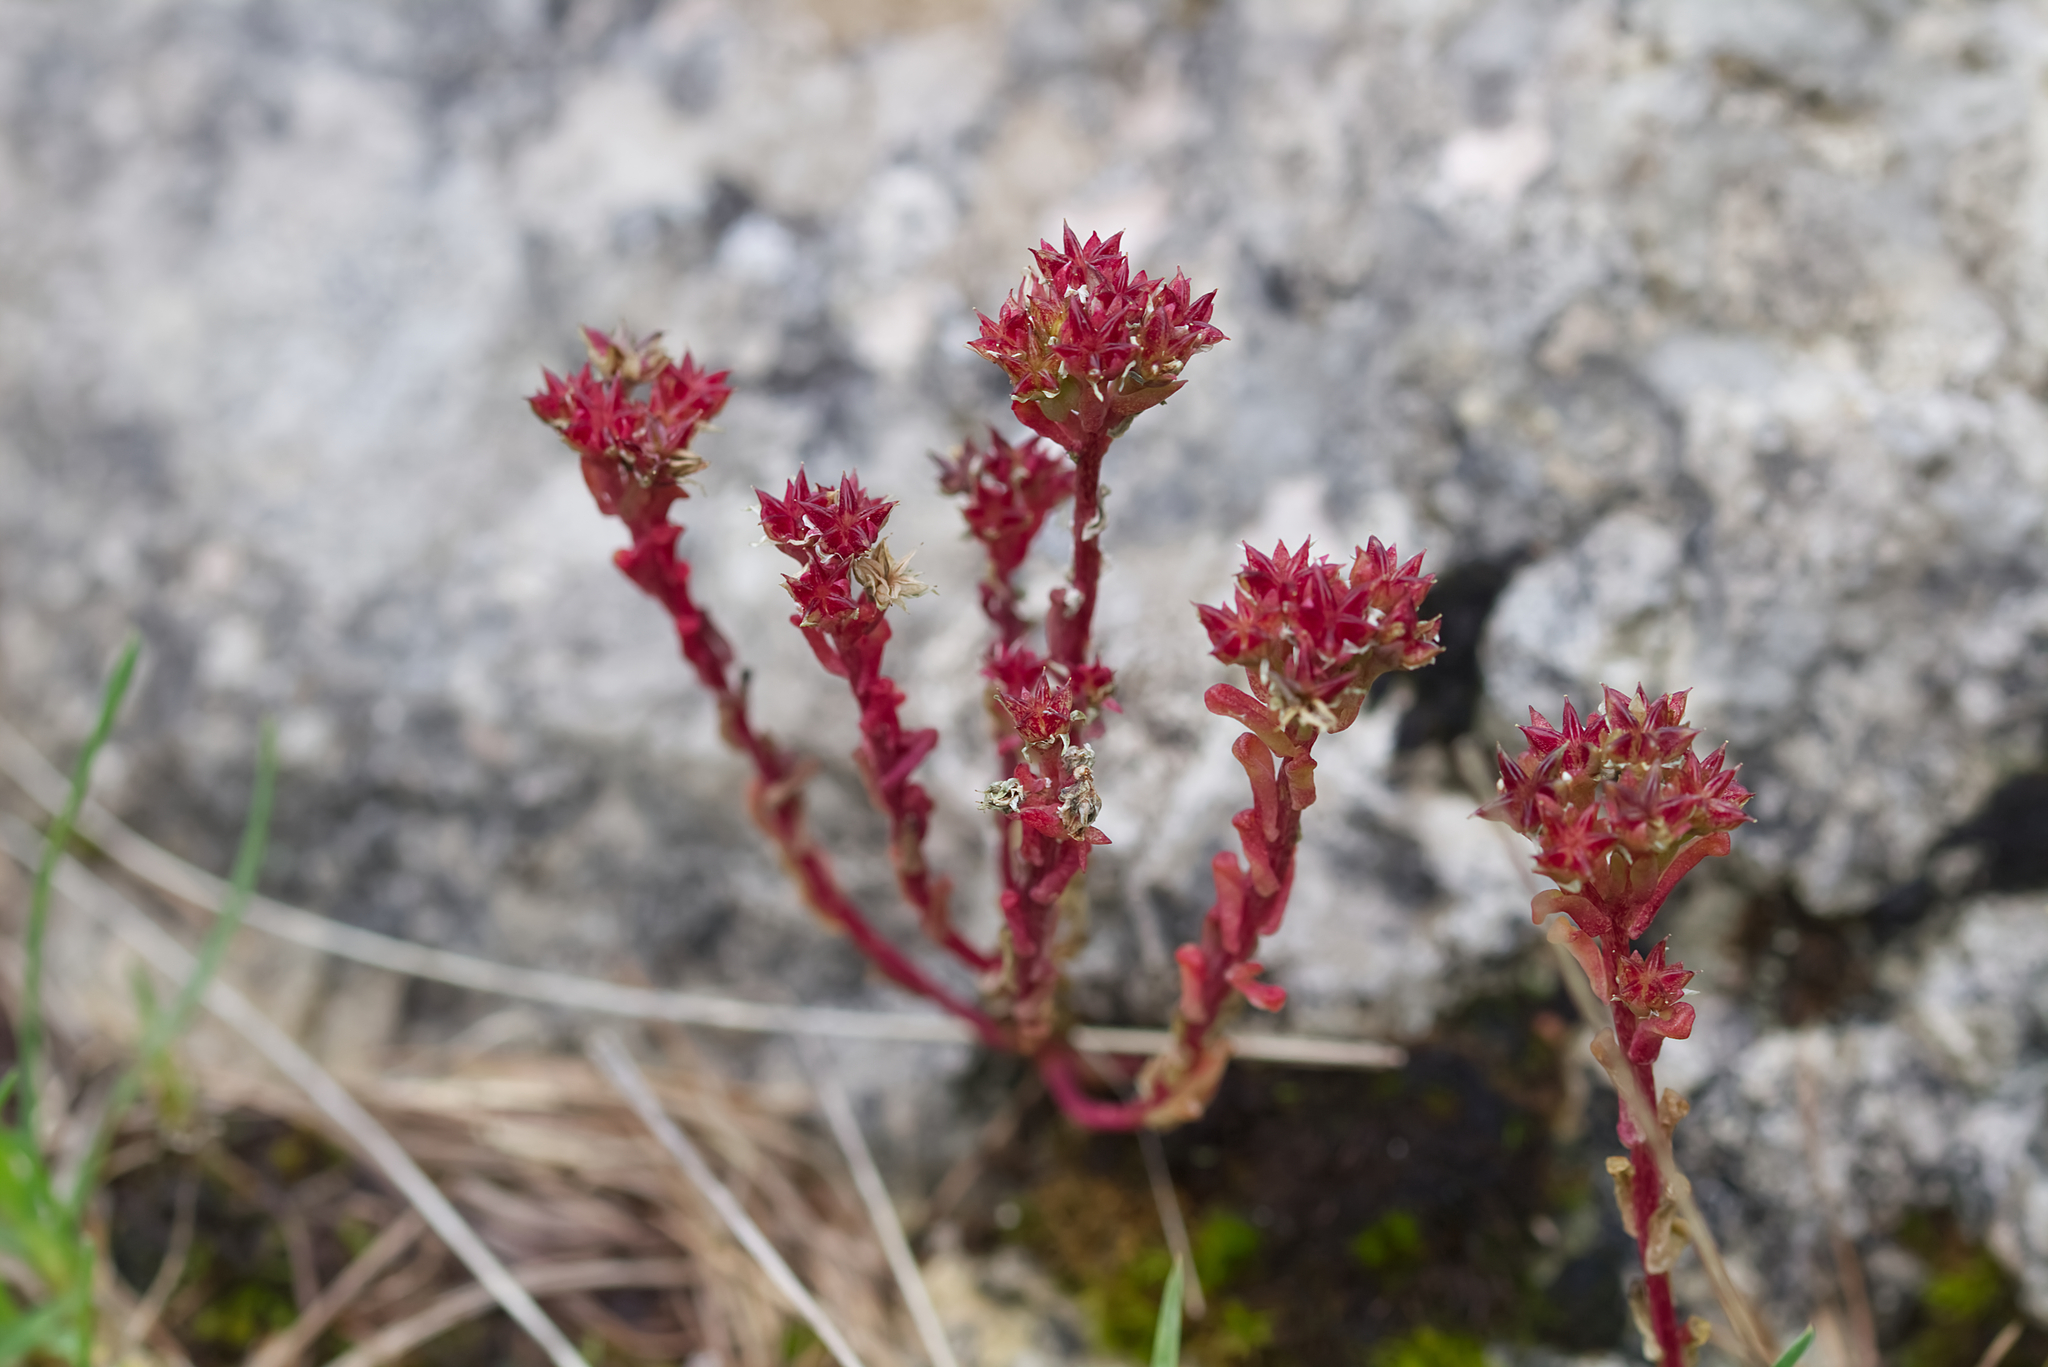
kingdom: Plantae
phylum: Tracheophyta
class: Magnoliopsida
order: Saxifragales
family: Crassulaceae
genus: Sedum
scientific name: Sedum atratum
